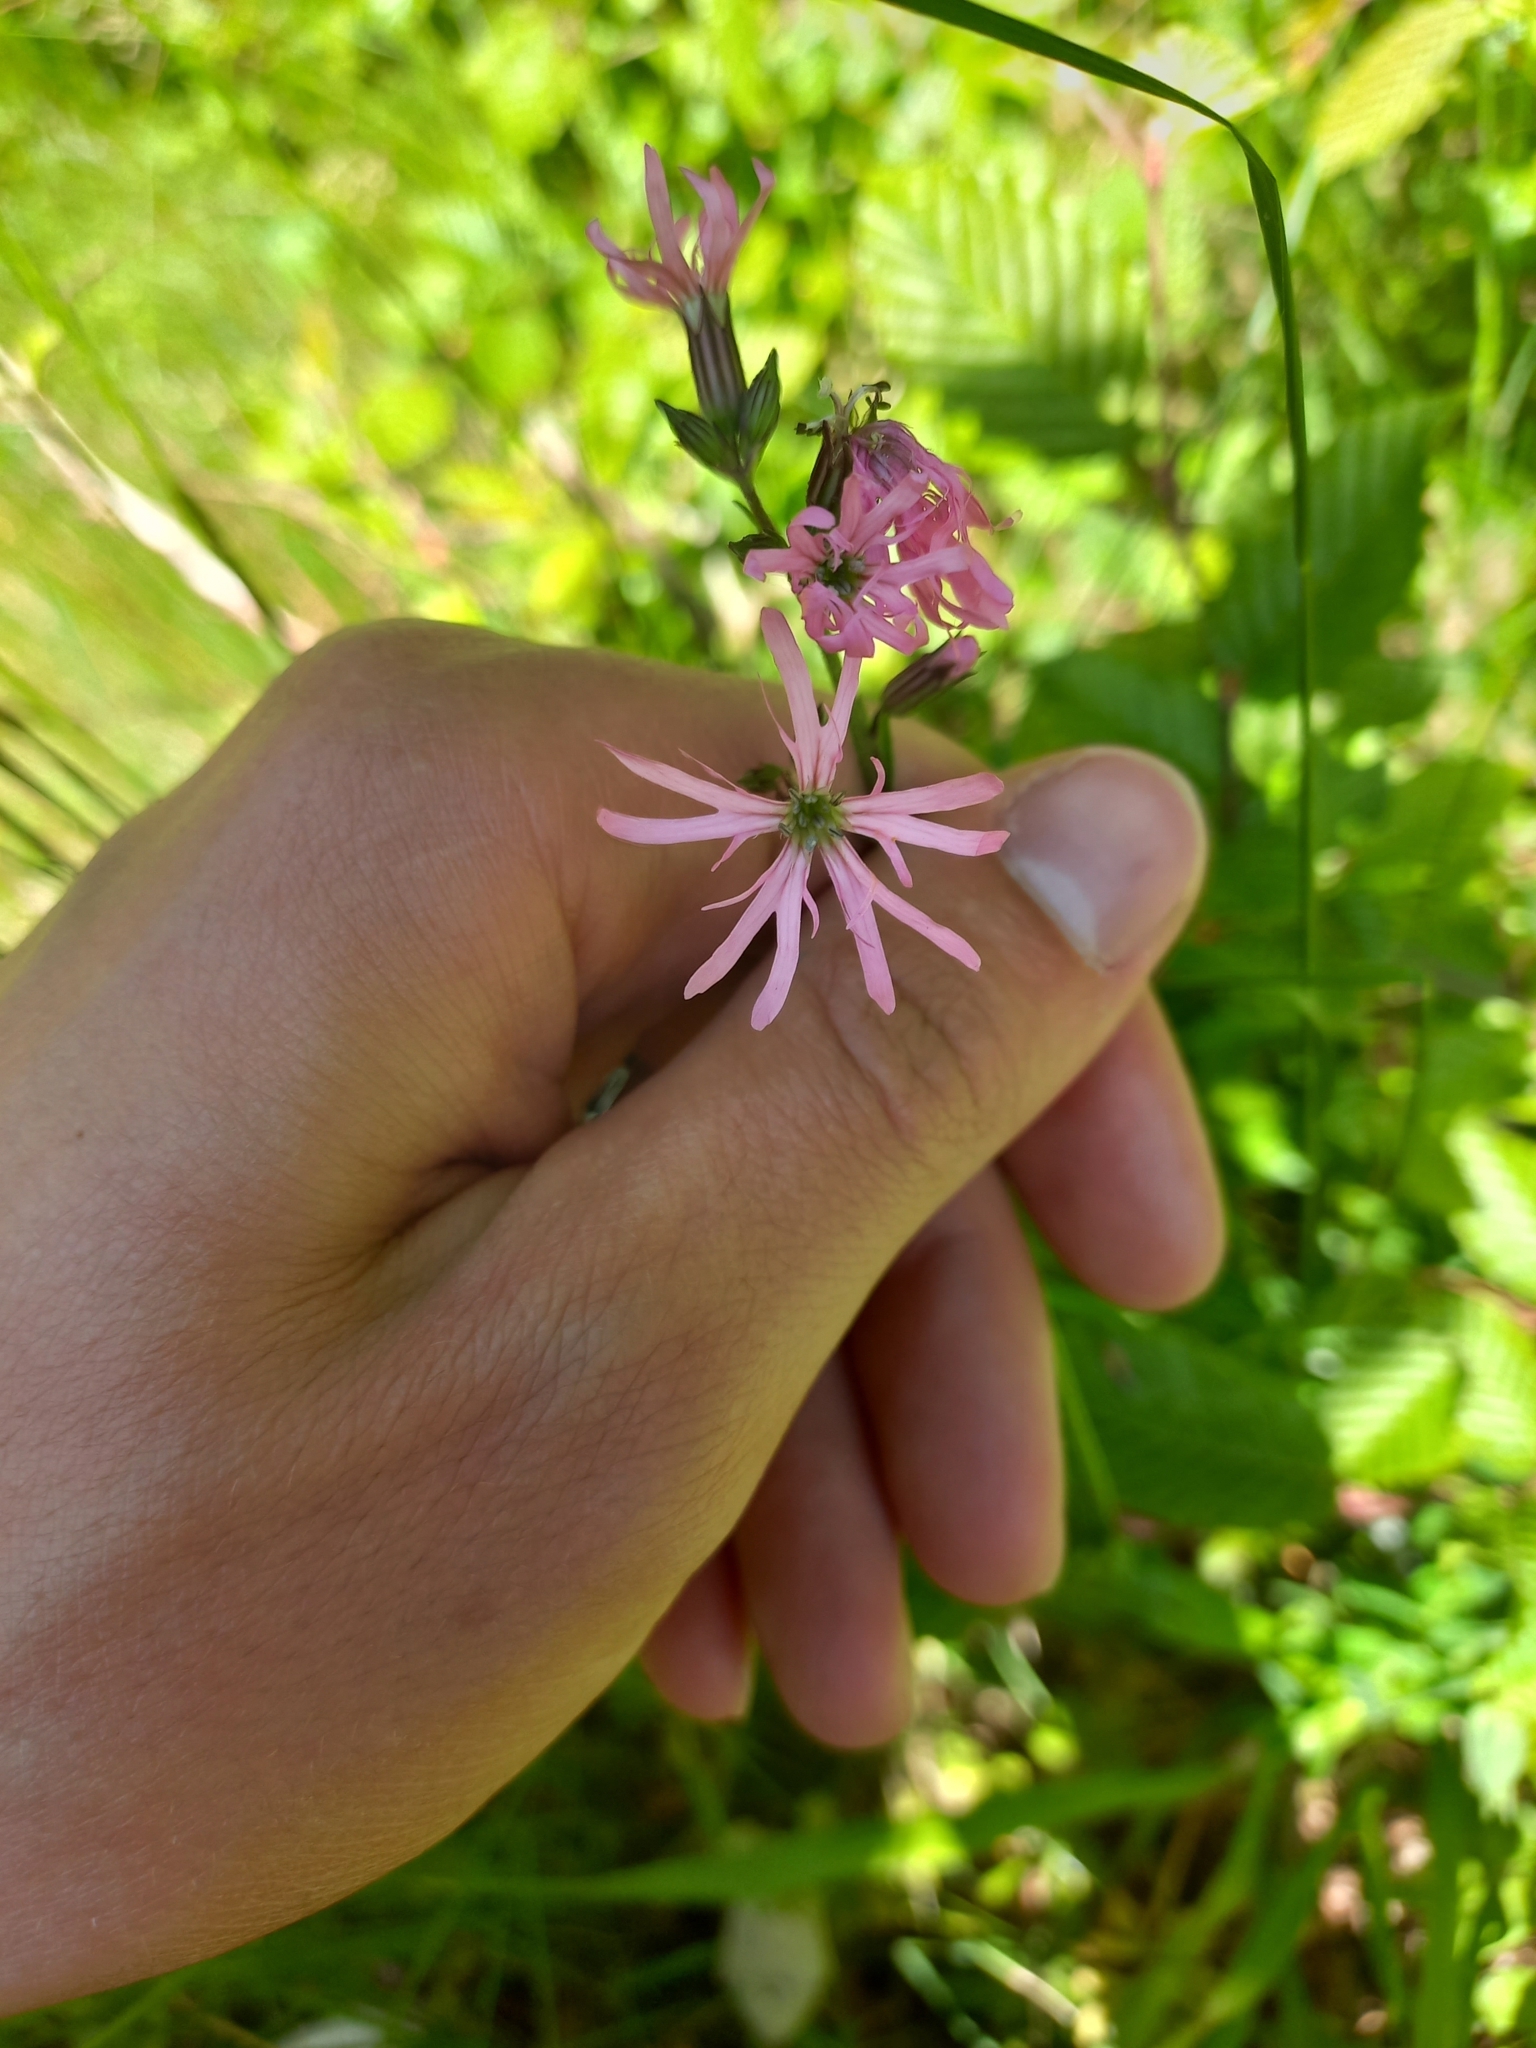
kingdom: Plantae
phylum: Tracheophyta
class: Magnoliopsida
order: Caryophyllales
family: Caryophyllaceae
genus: Silene
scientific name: Silene flos-cuculi
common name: Ragged-robin
